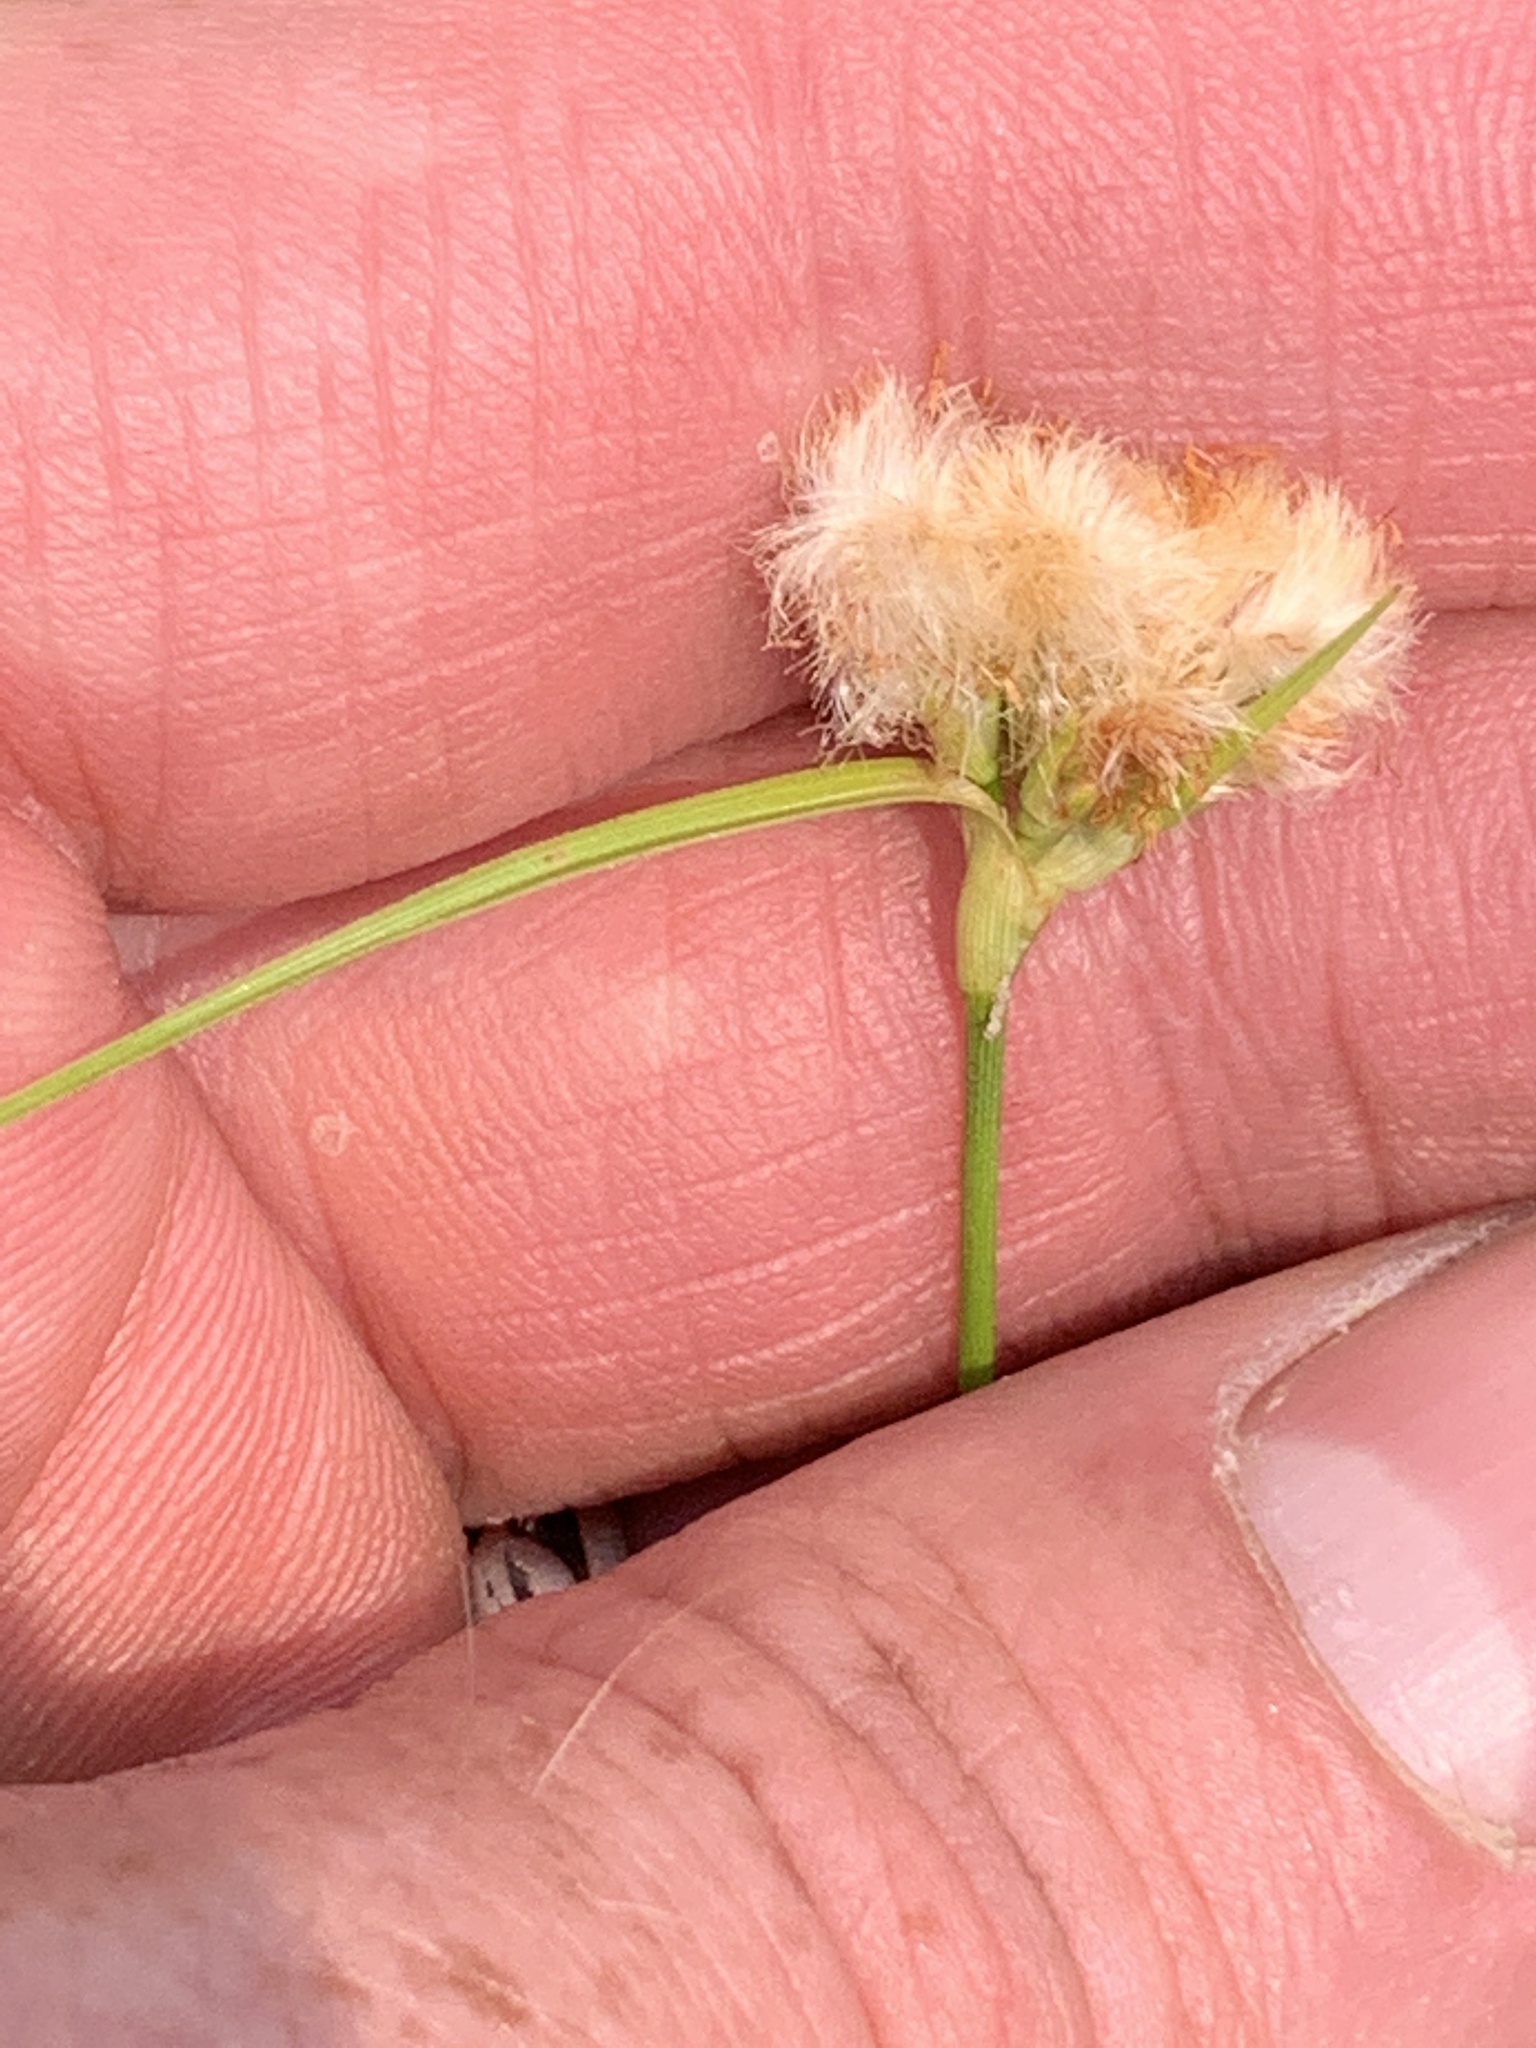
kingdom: Plantae
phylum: Tracheophyta
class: Liliopsida
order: Poales
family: Cyperaceae
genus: Eriophorum
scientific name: Eriophorum virginicum
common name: Tawny cottongrass
